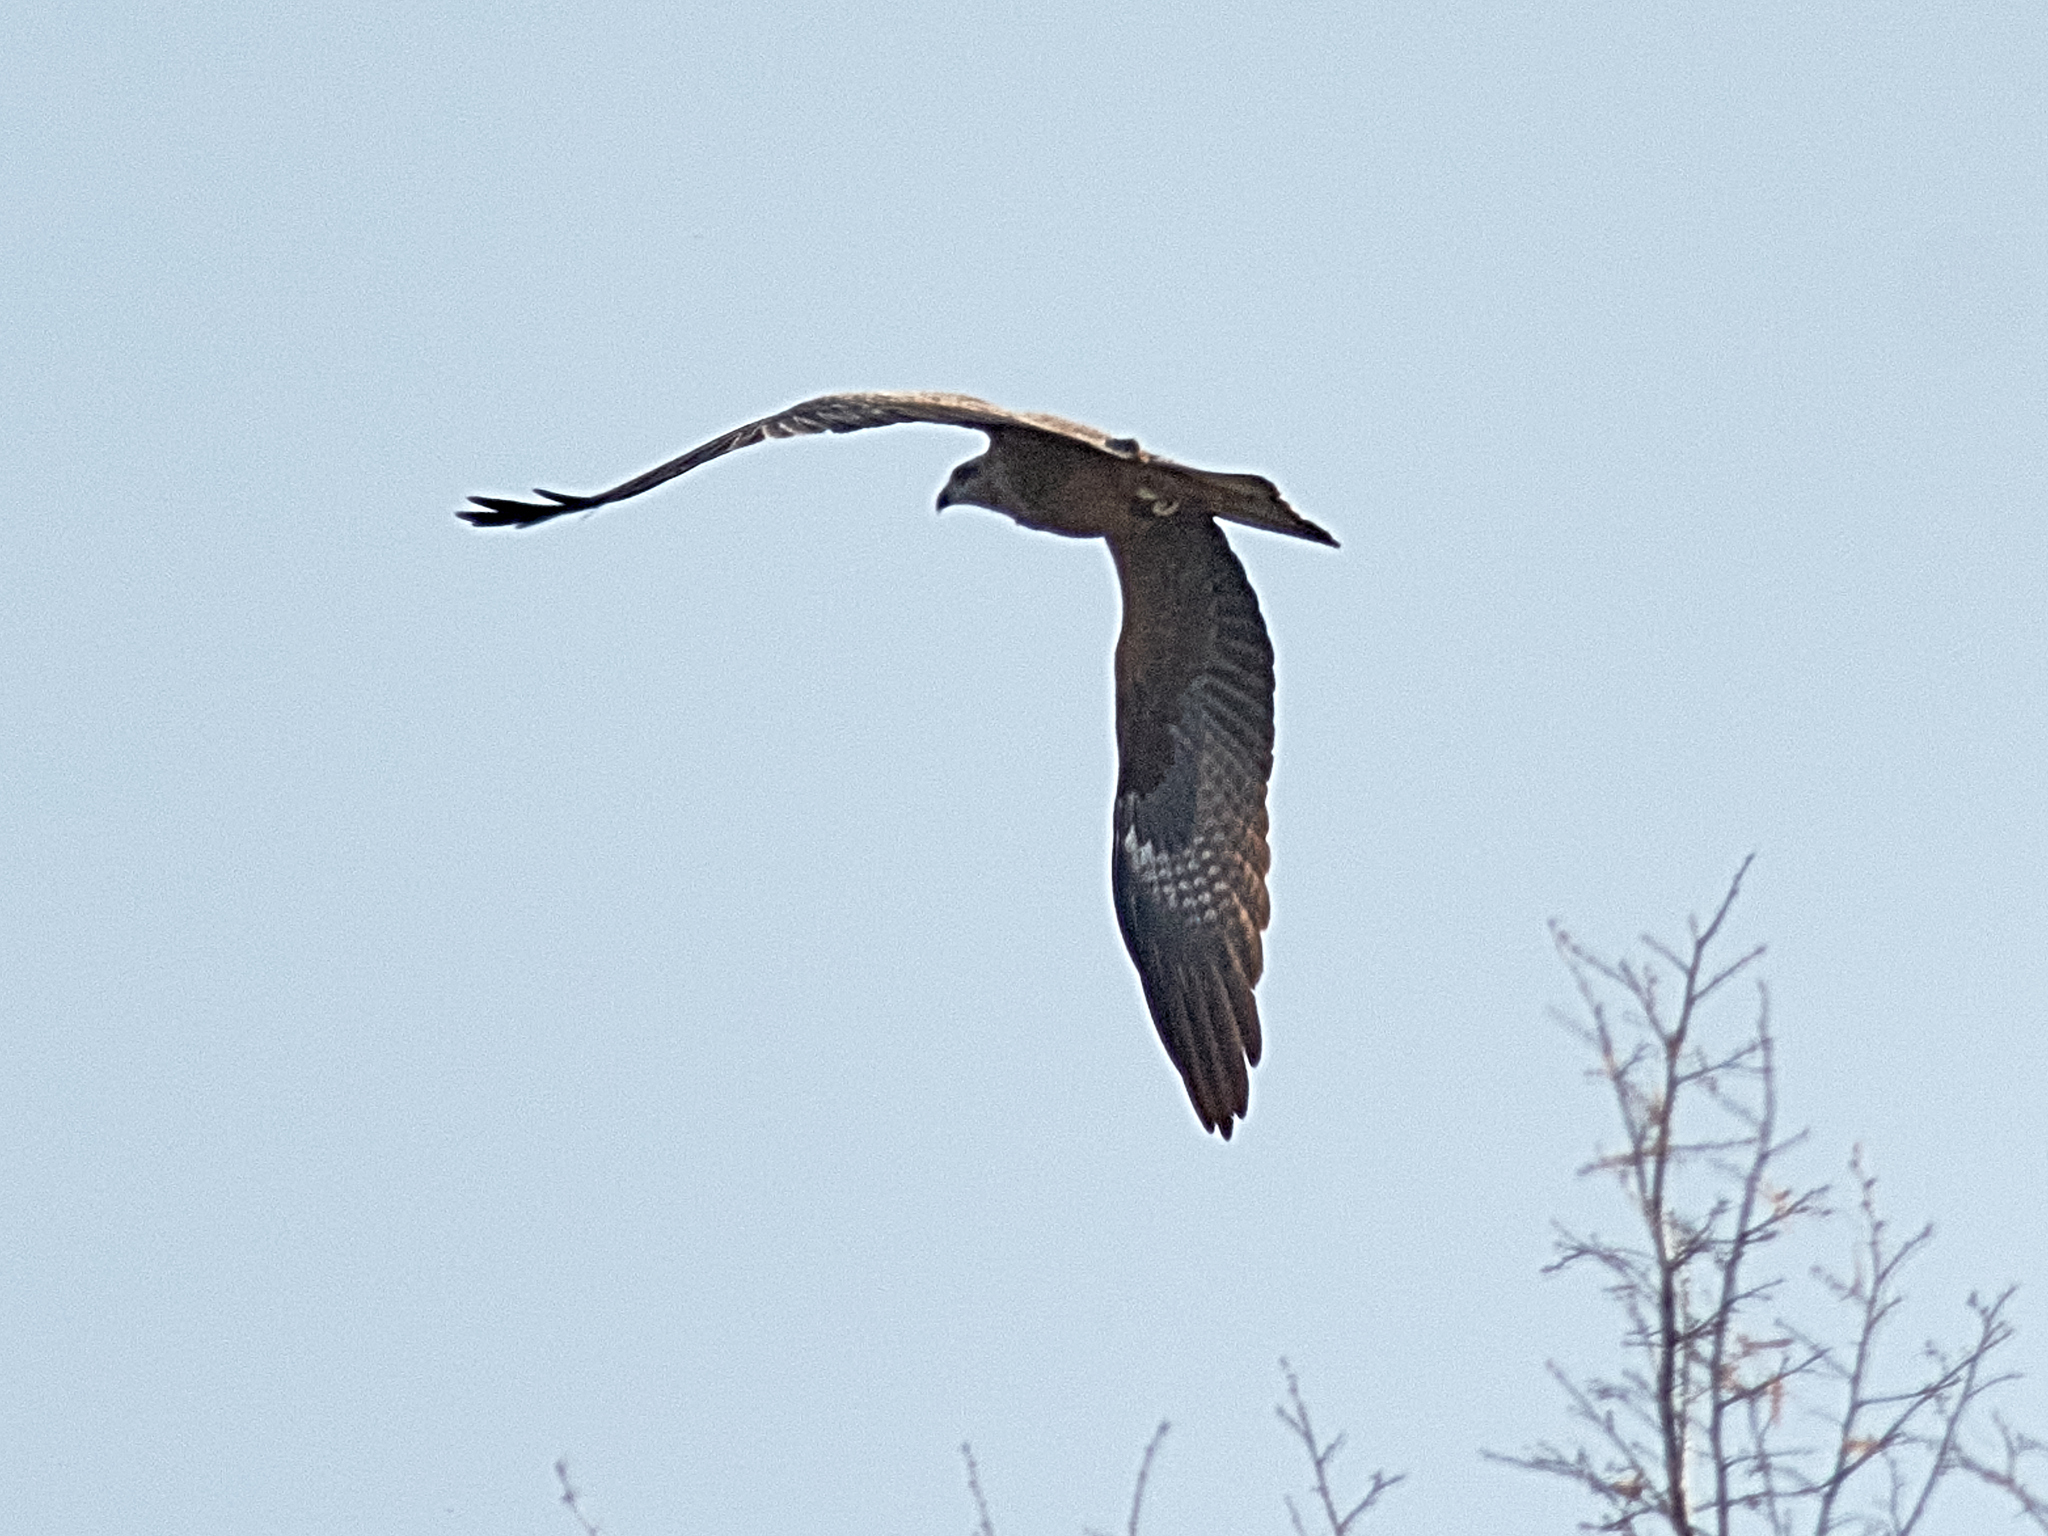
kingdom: Animalia
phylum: Chordata
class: Aves
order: Accipitriformes
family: Accipitridae
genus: Milvus
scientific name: Milvus migrans
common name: Black kite
